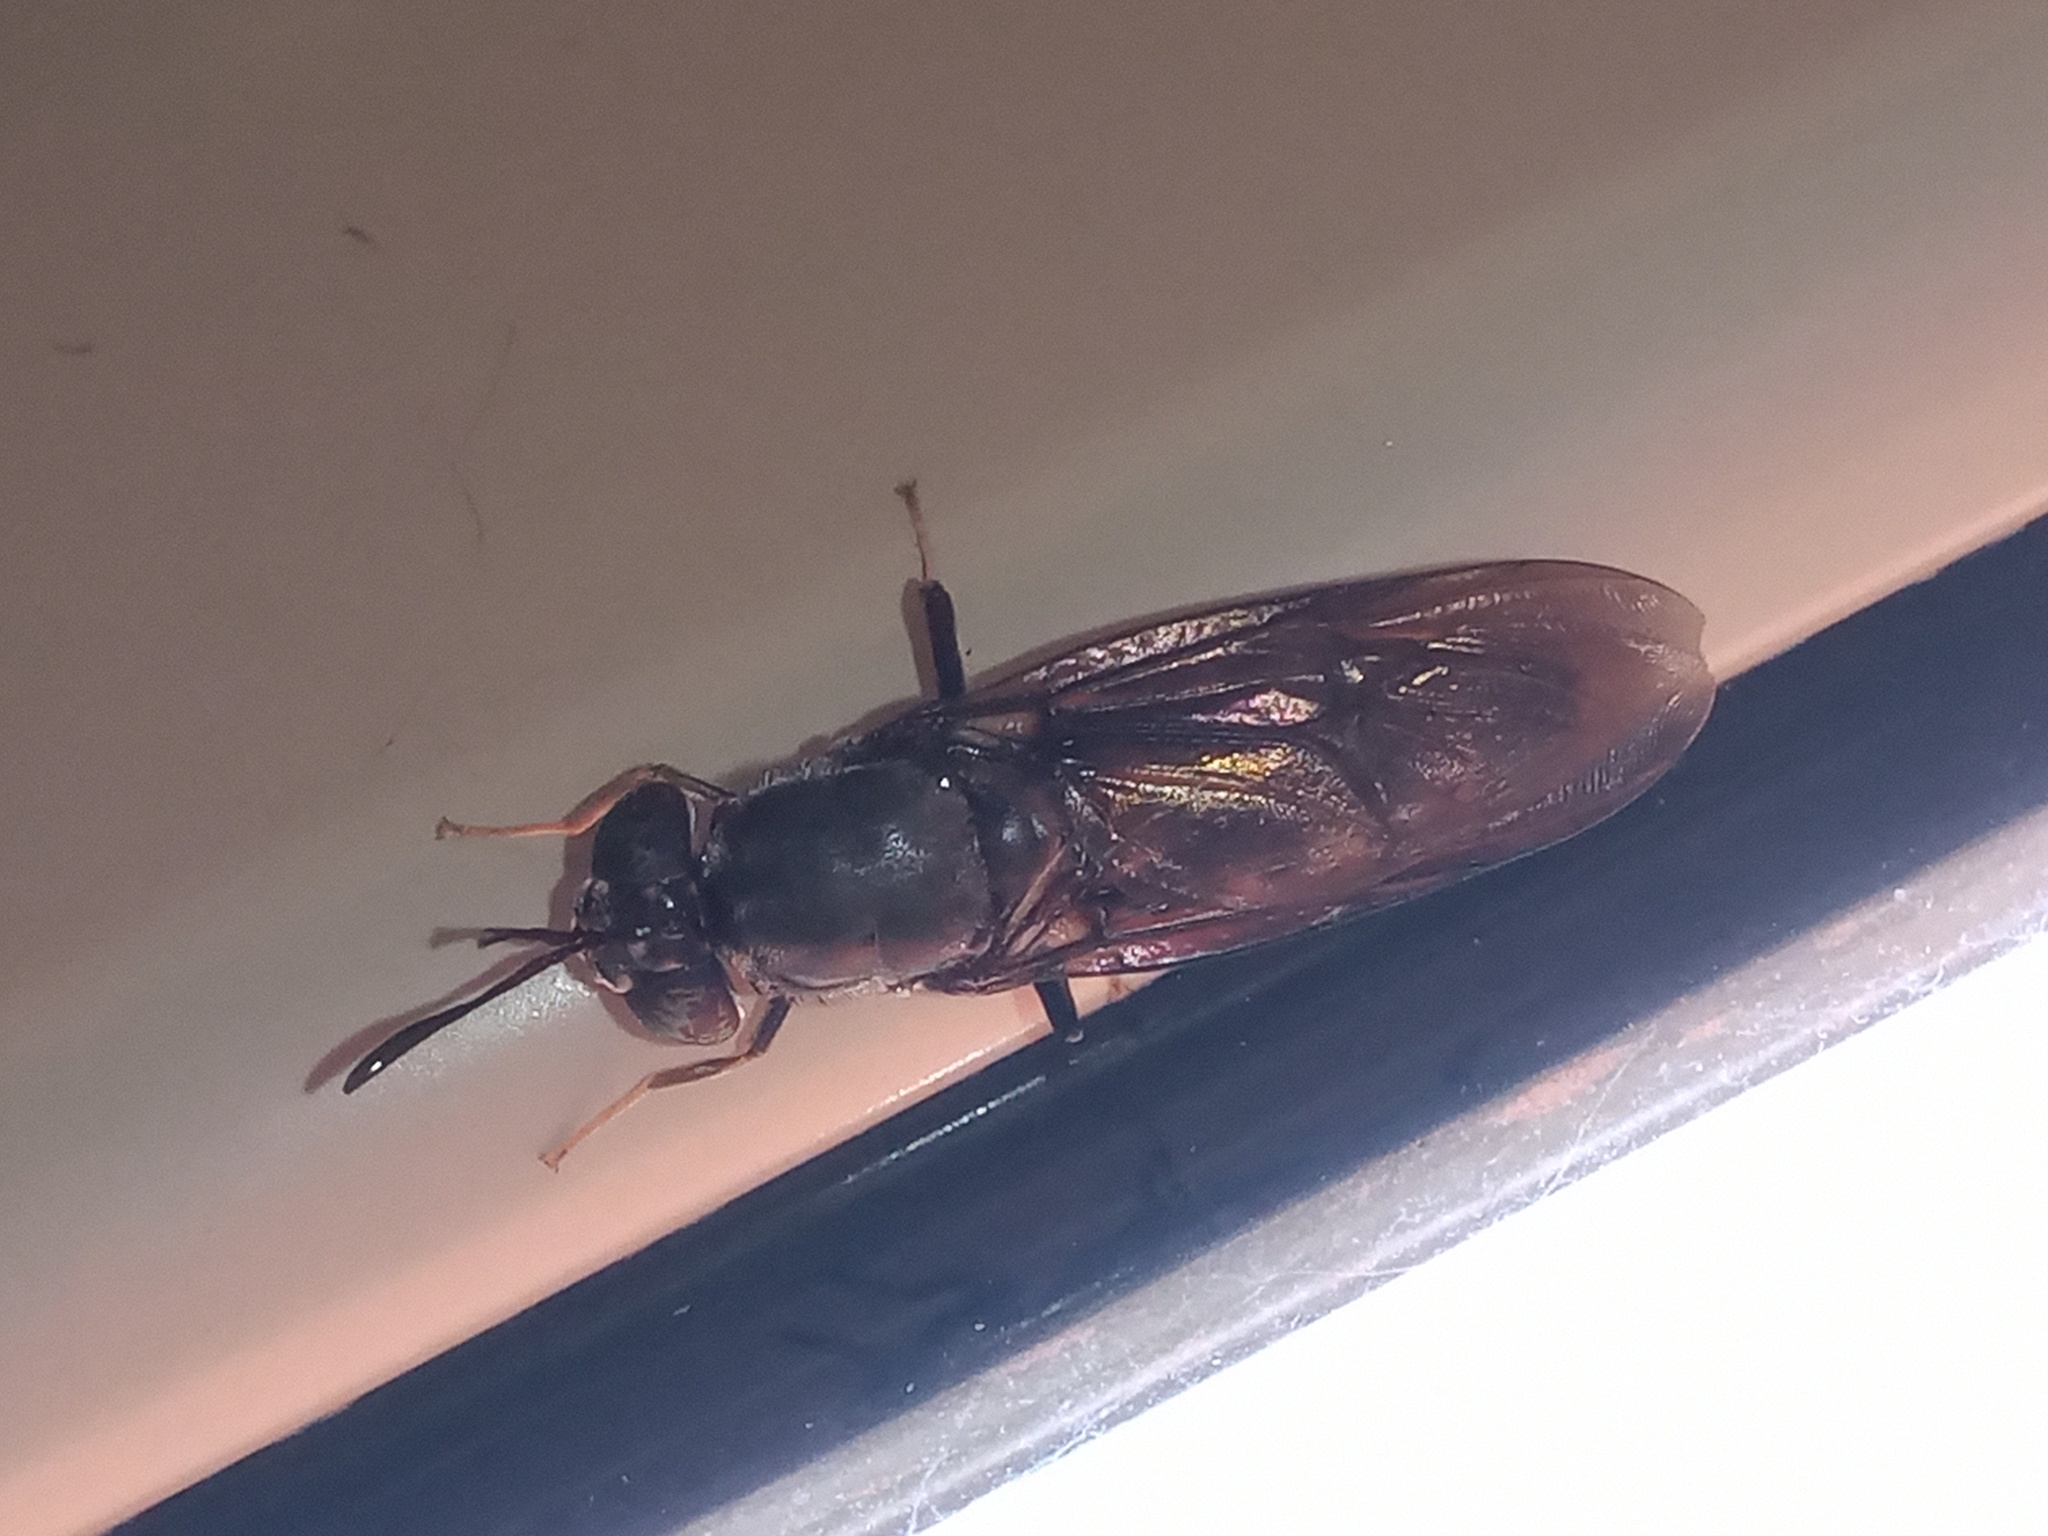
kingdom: Animalia
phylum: Arthropoda
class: Insecta
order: Diptera
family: Stratiomyidae
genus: Hermetia
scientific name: Hermetia illucens
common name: Black soldier fly
